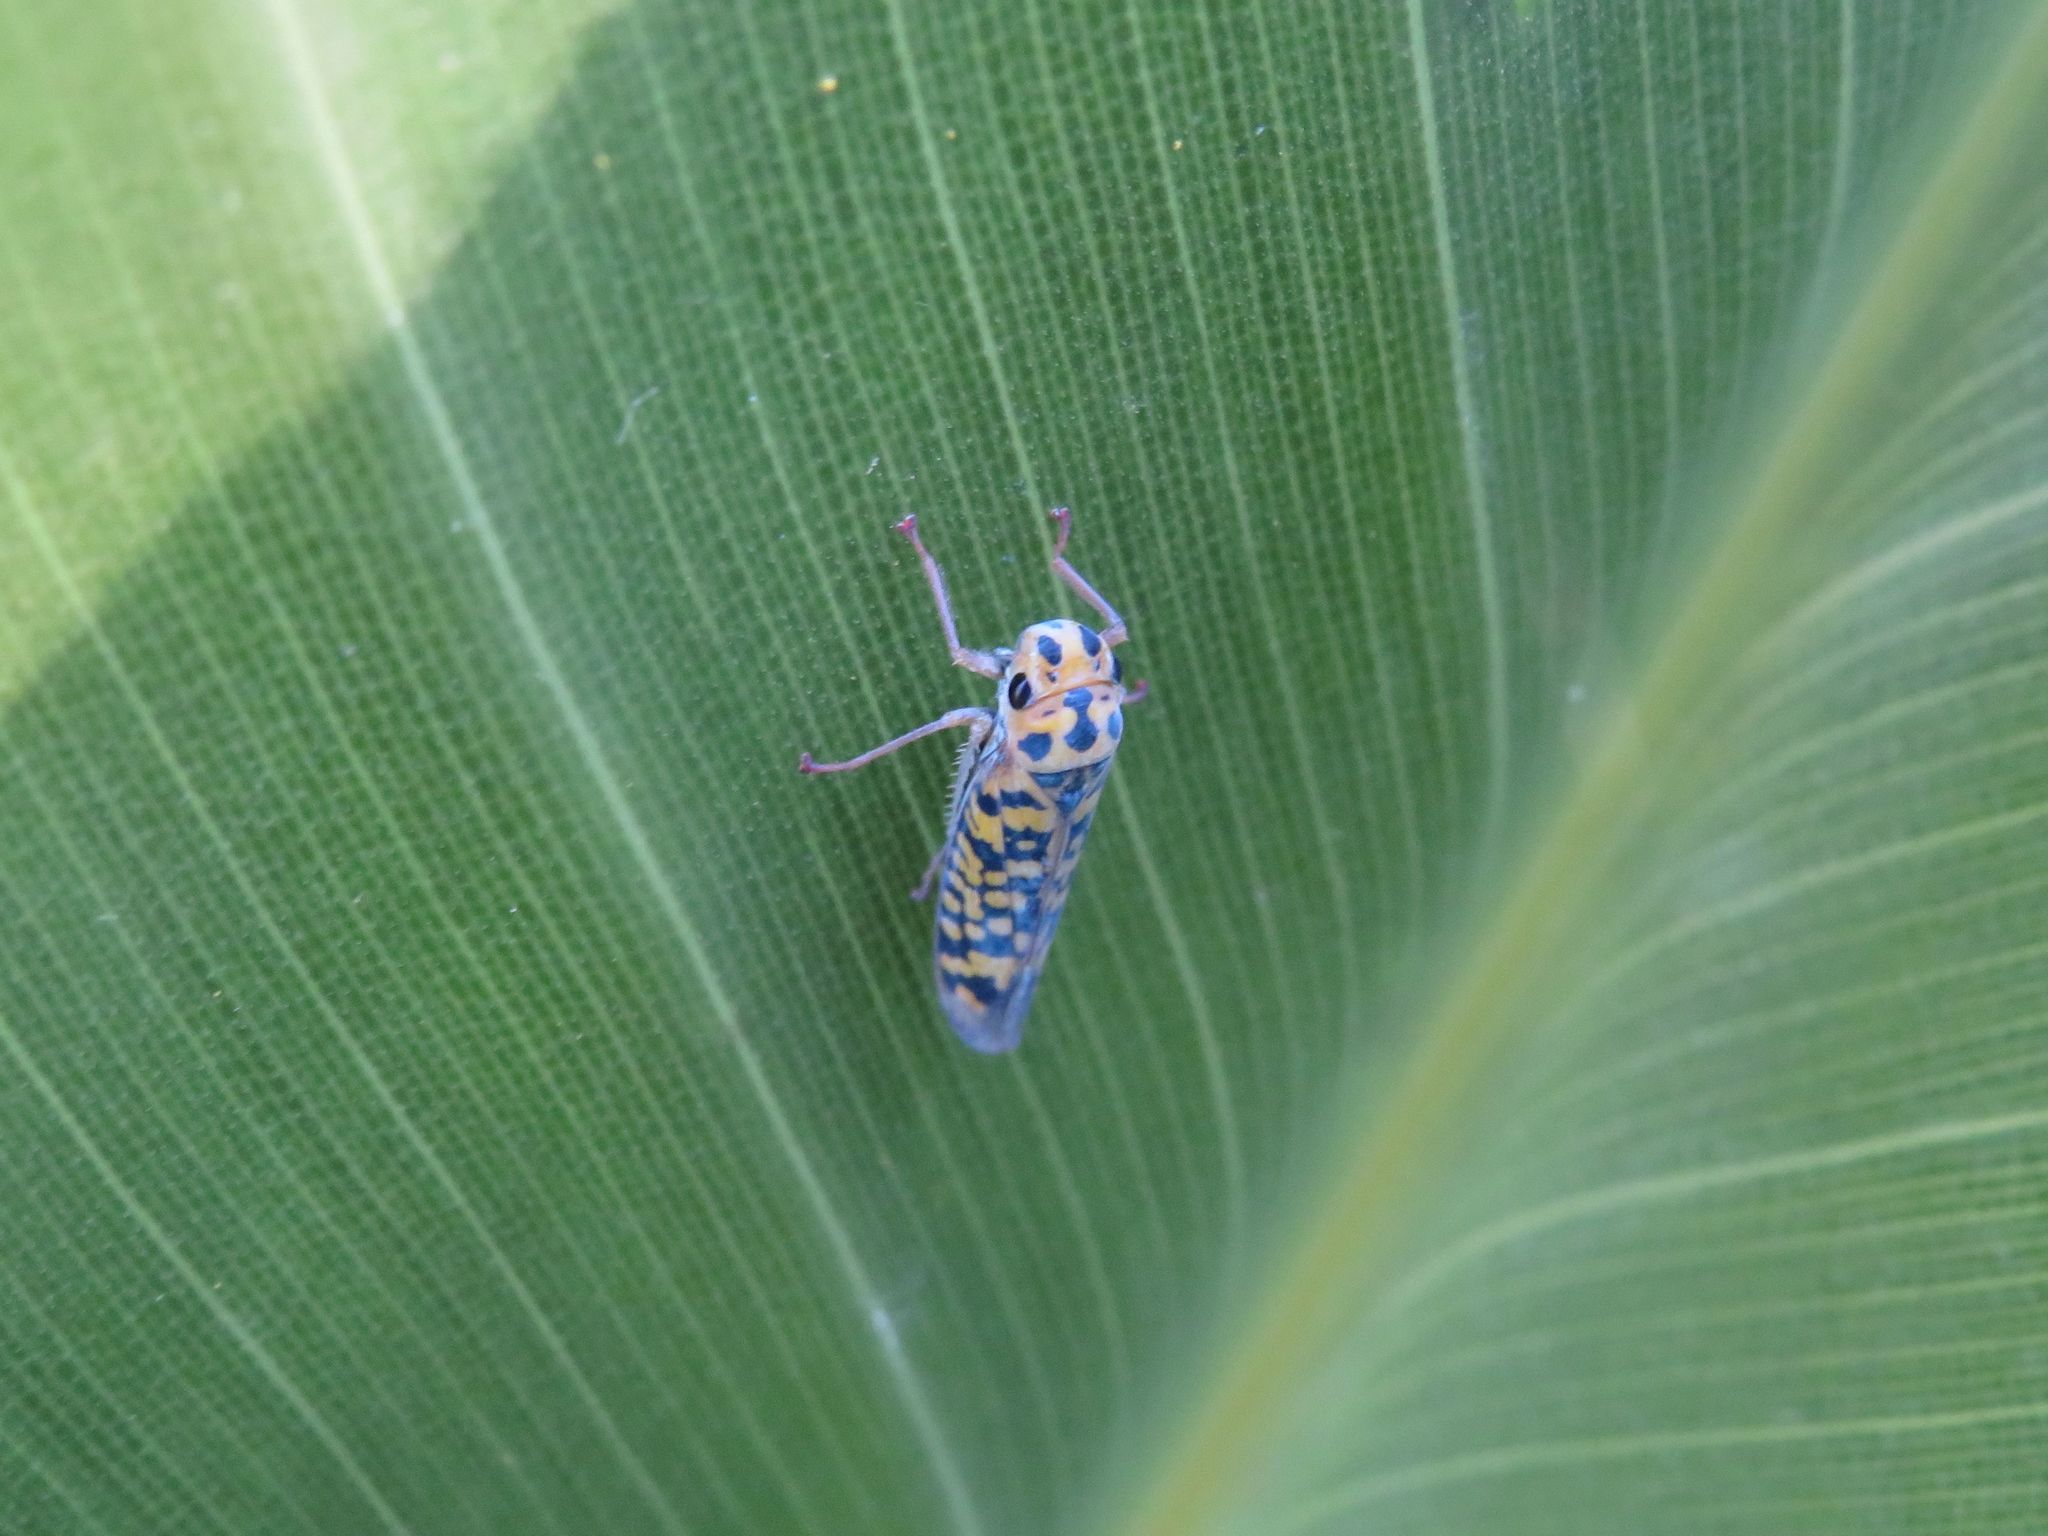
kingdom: Animalia
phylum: Arthropoda
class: Insecta
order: Hemiptera
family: Cicadellidae
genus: Pawiloma
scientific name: Pawiloma victima
